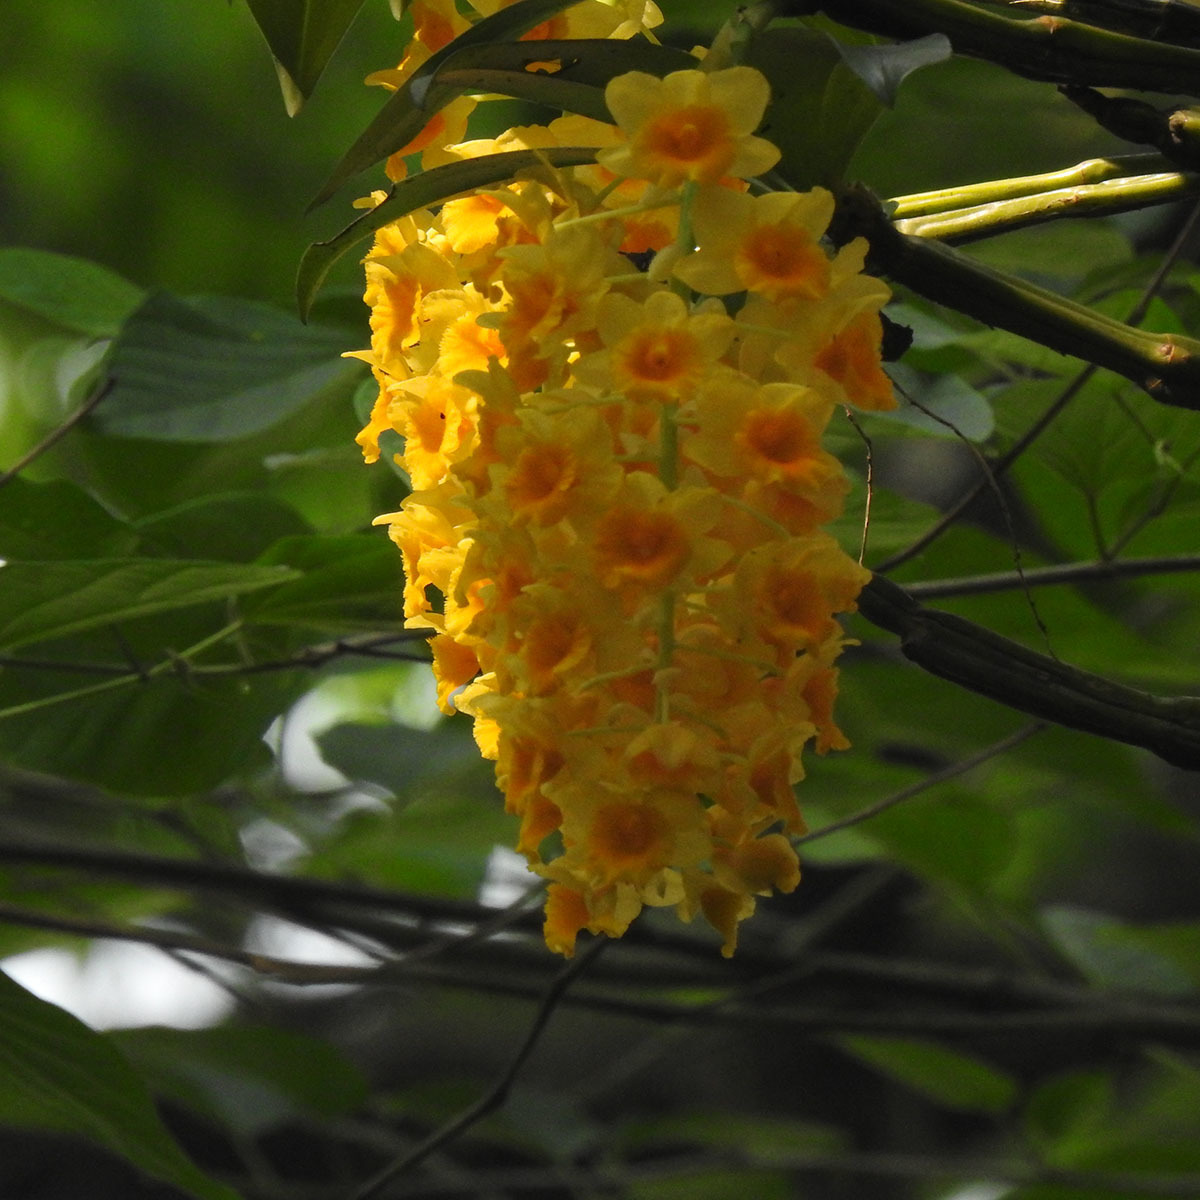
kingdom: Plantae
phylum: Tracheophyta
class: Liliopsida
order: Asparagales
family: Orchidaceae
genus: Dendrobium
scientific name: Dendrobium densiflorum
